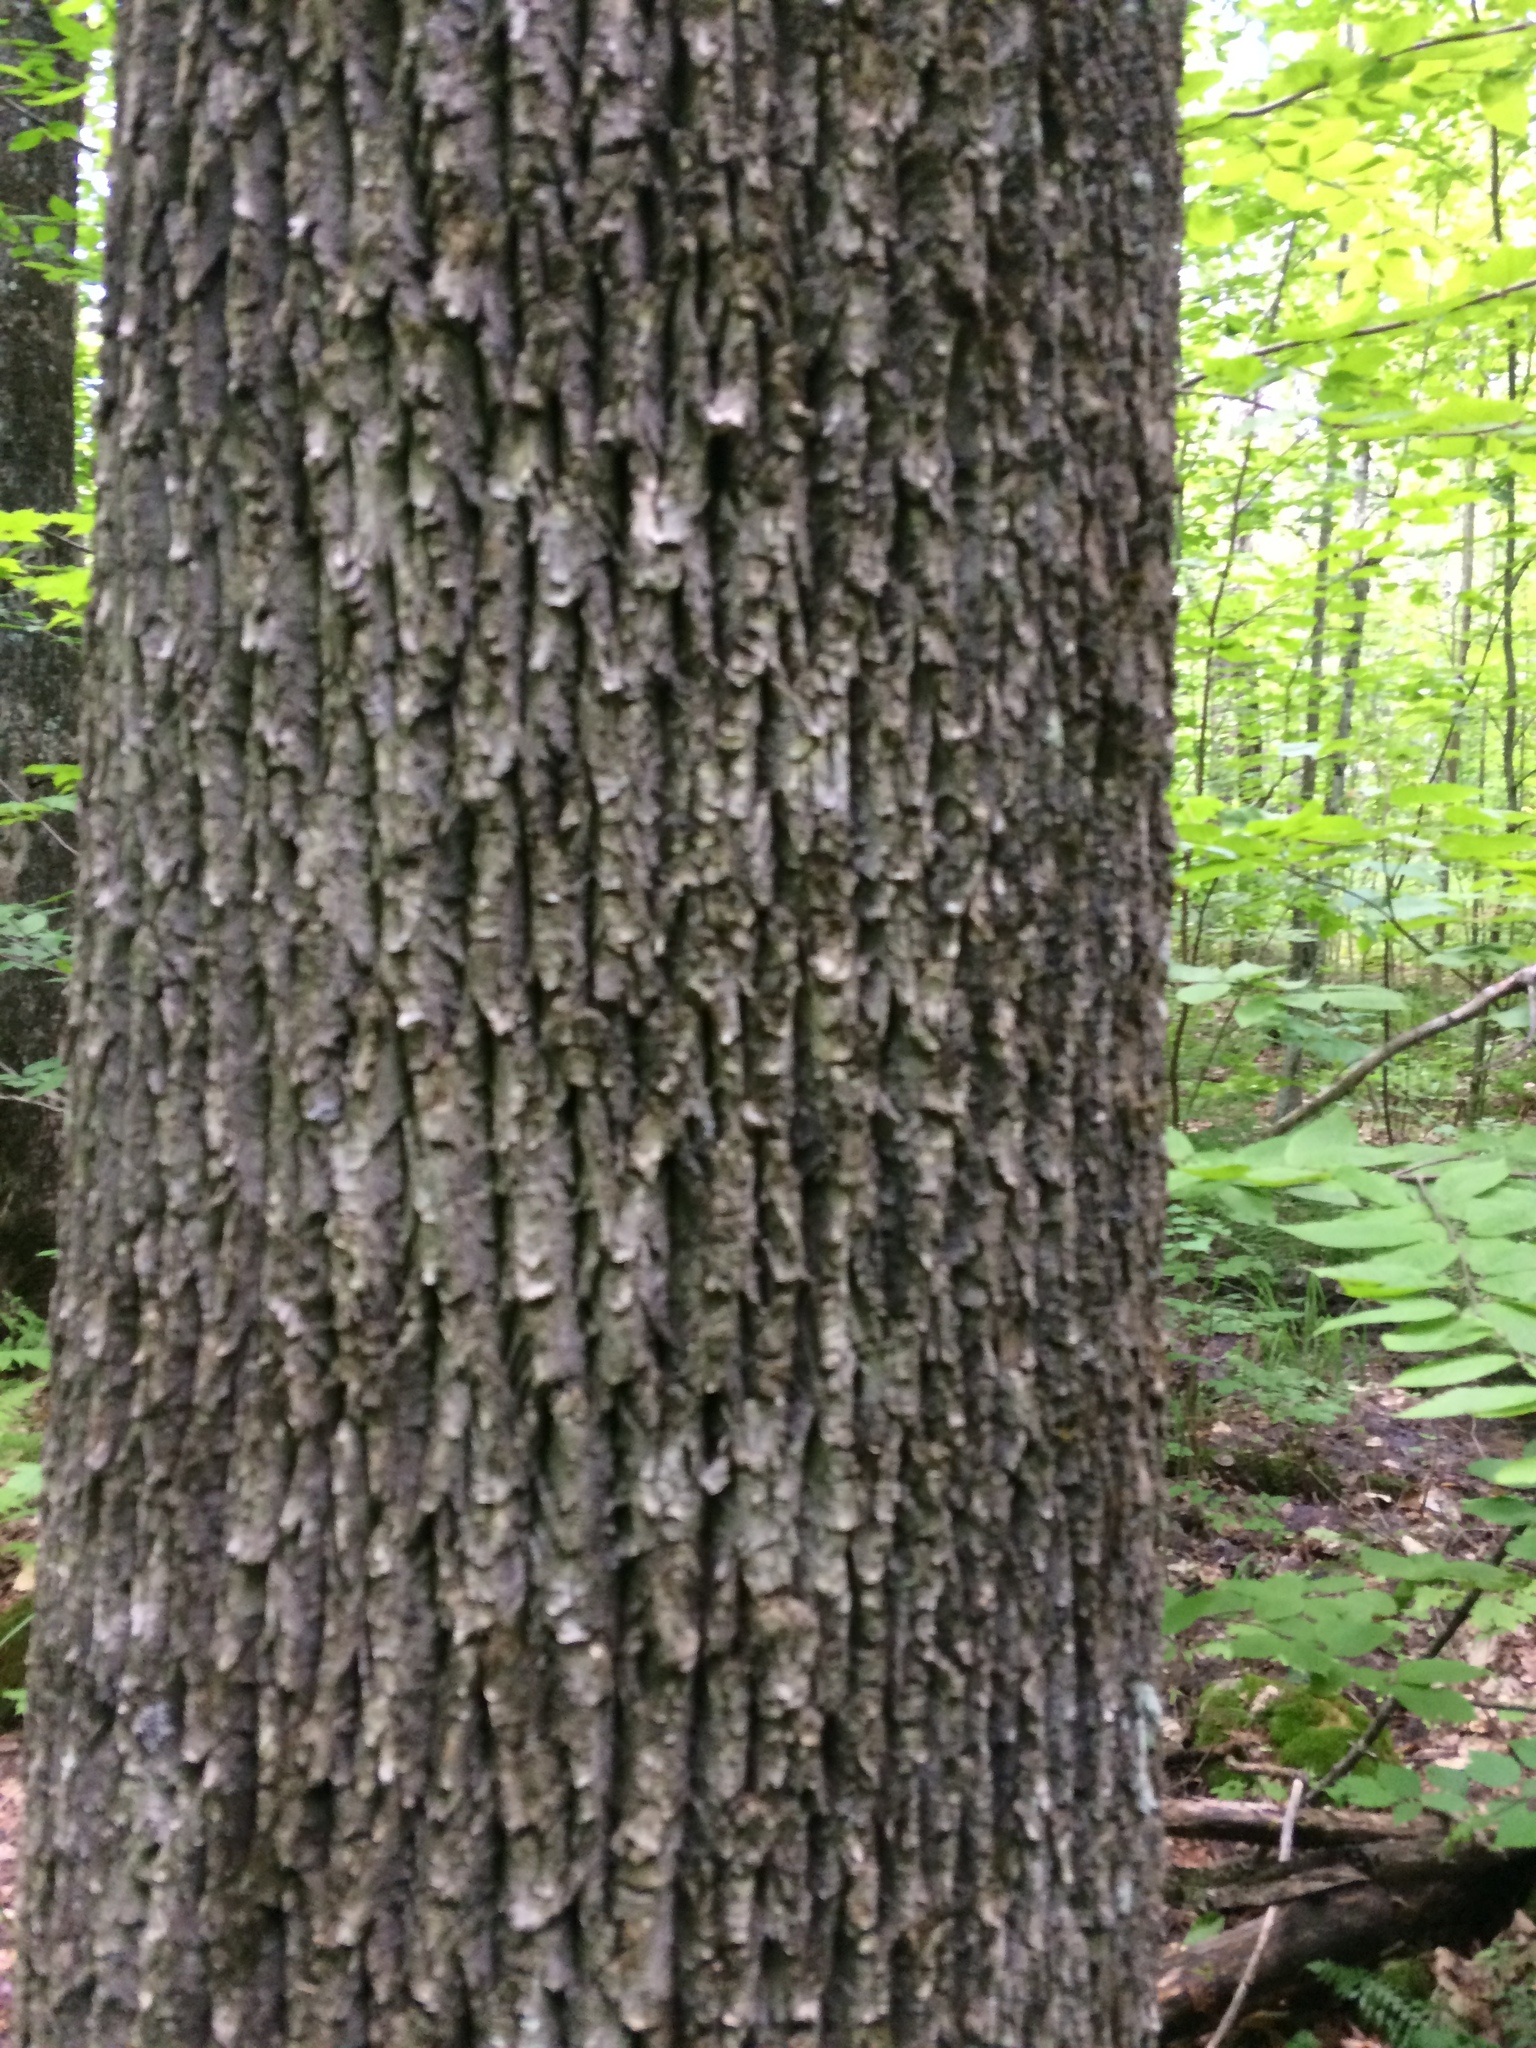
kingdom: Plantae
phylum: Tracheophyta
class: Magnoliopsida
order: Lamiales
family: Oleaceae
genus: Fraxinus
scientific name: Fraxinus americana
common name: White ash
